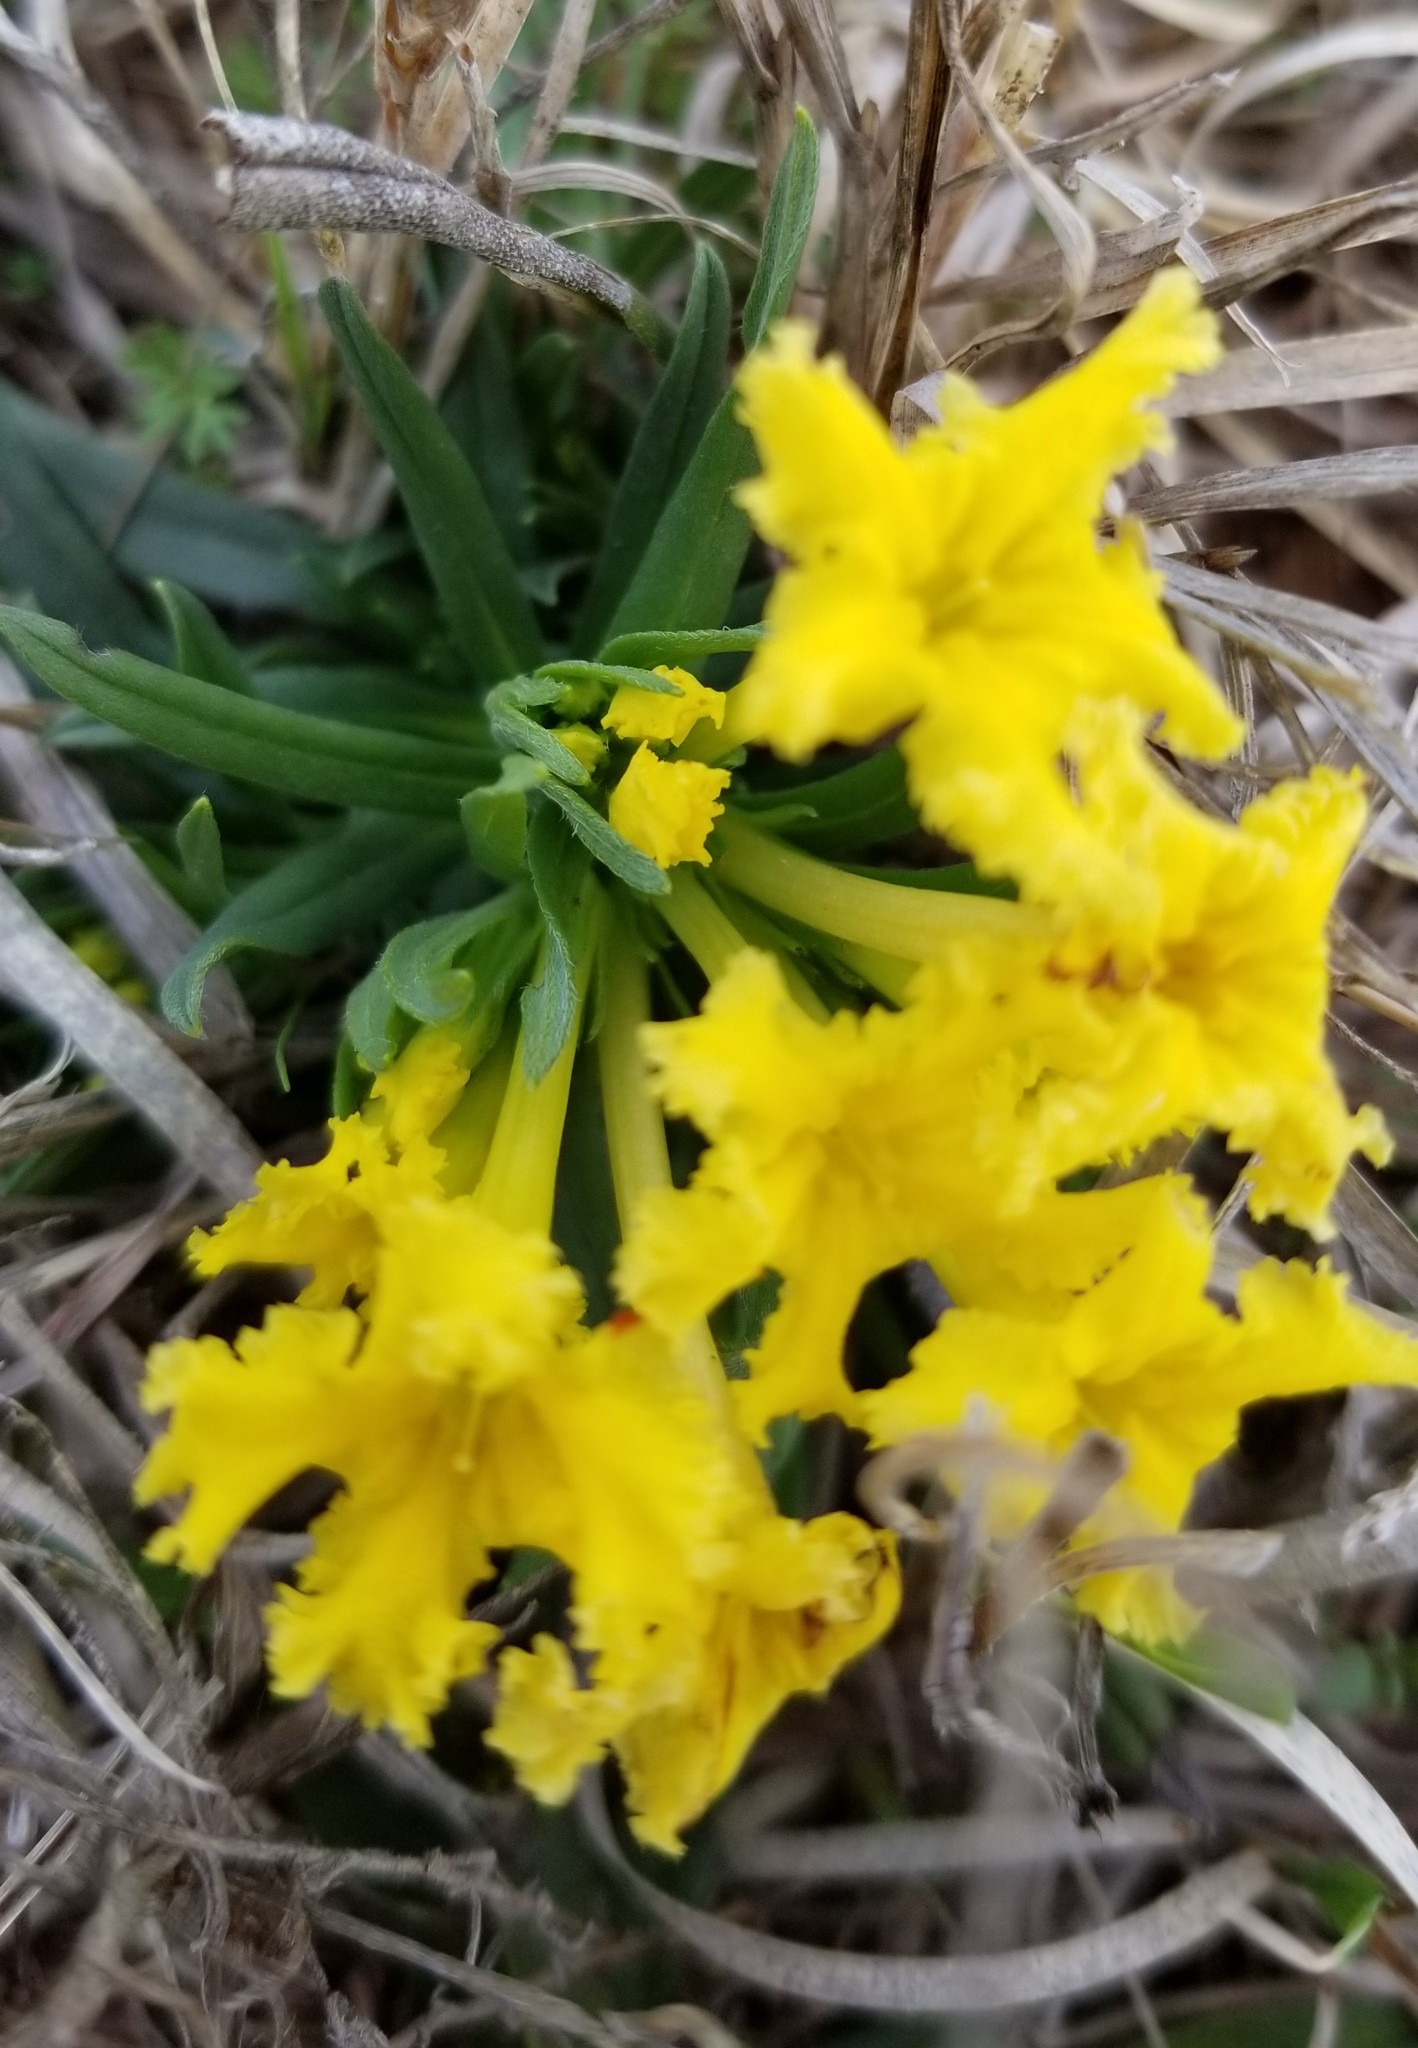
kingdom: Plantae
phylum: Tracheophyta
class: Magnoliopsida
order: Boraginales
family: Boraginaceae
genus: Lithospermum
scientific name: Lithospermum incisum
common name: Fringed gromwell
